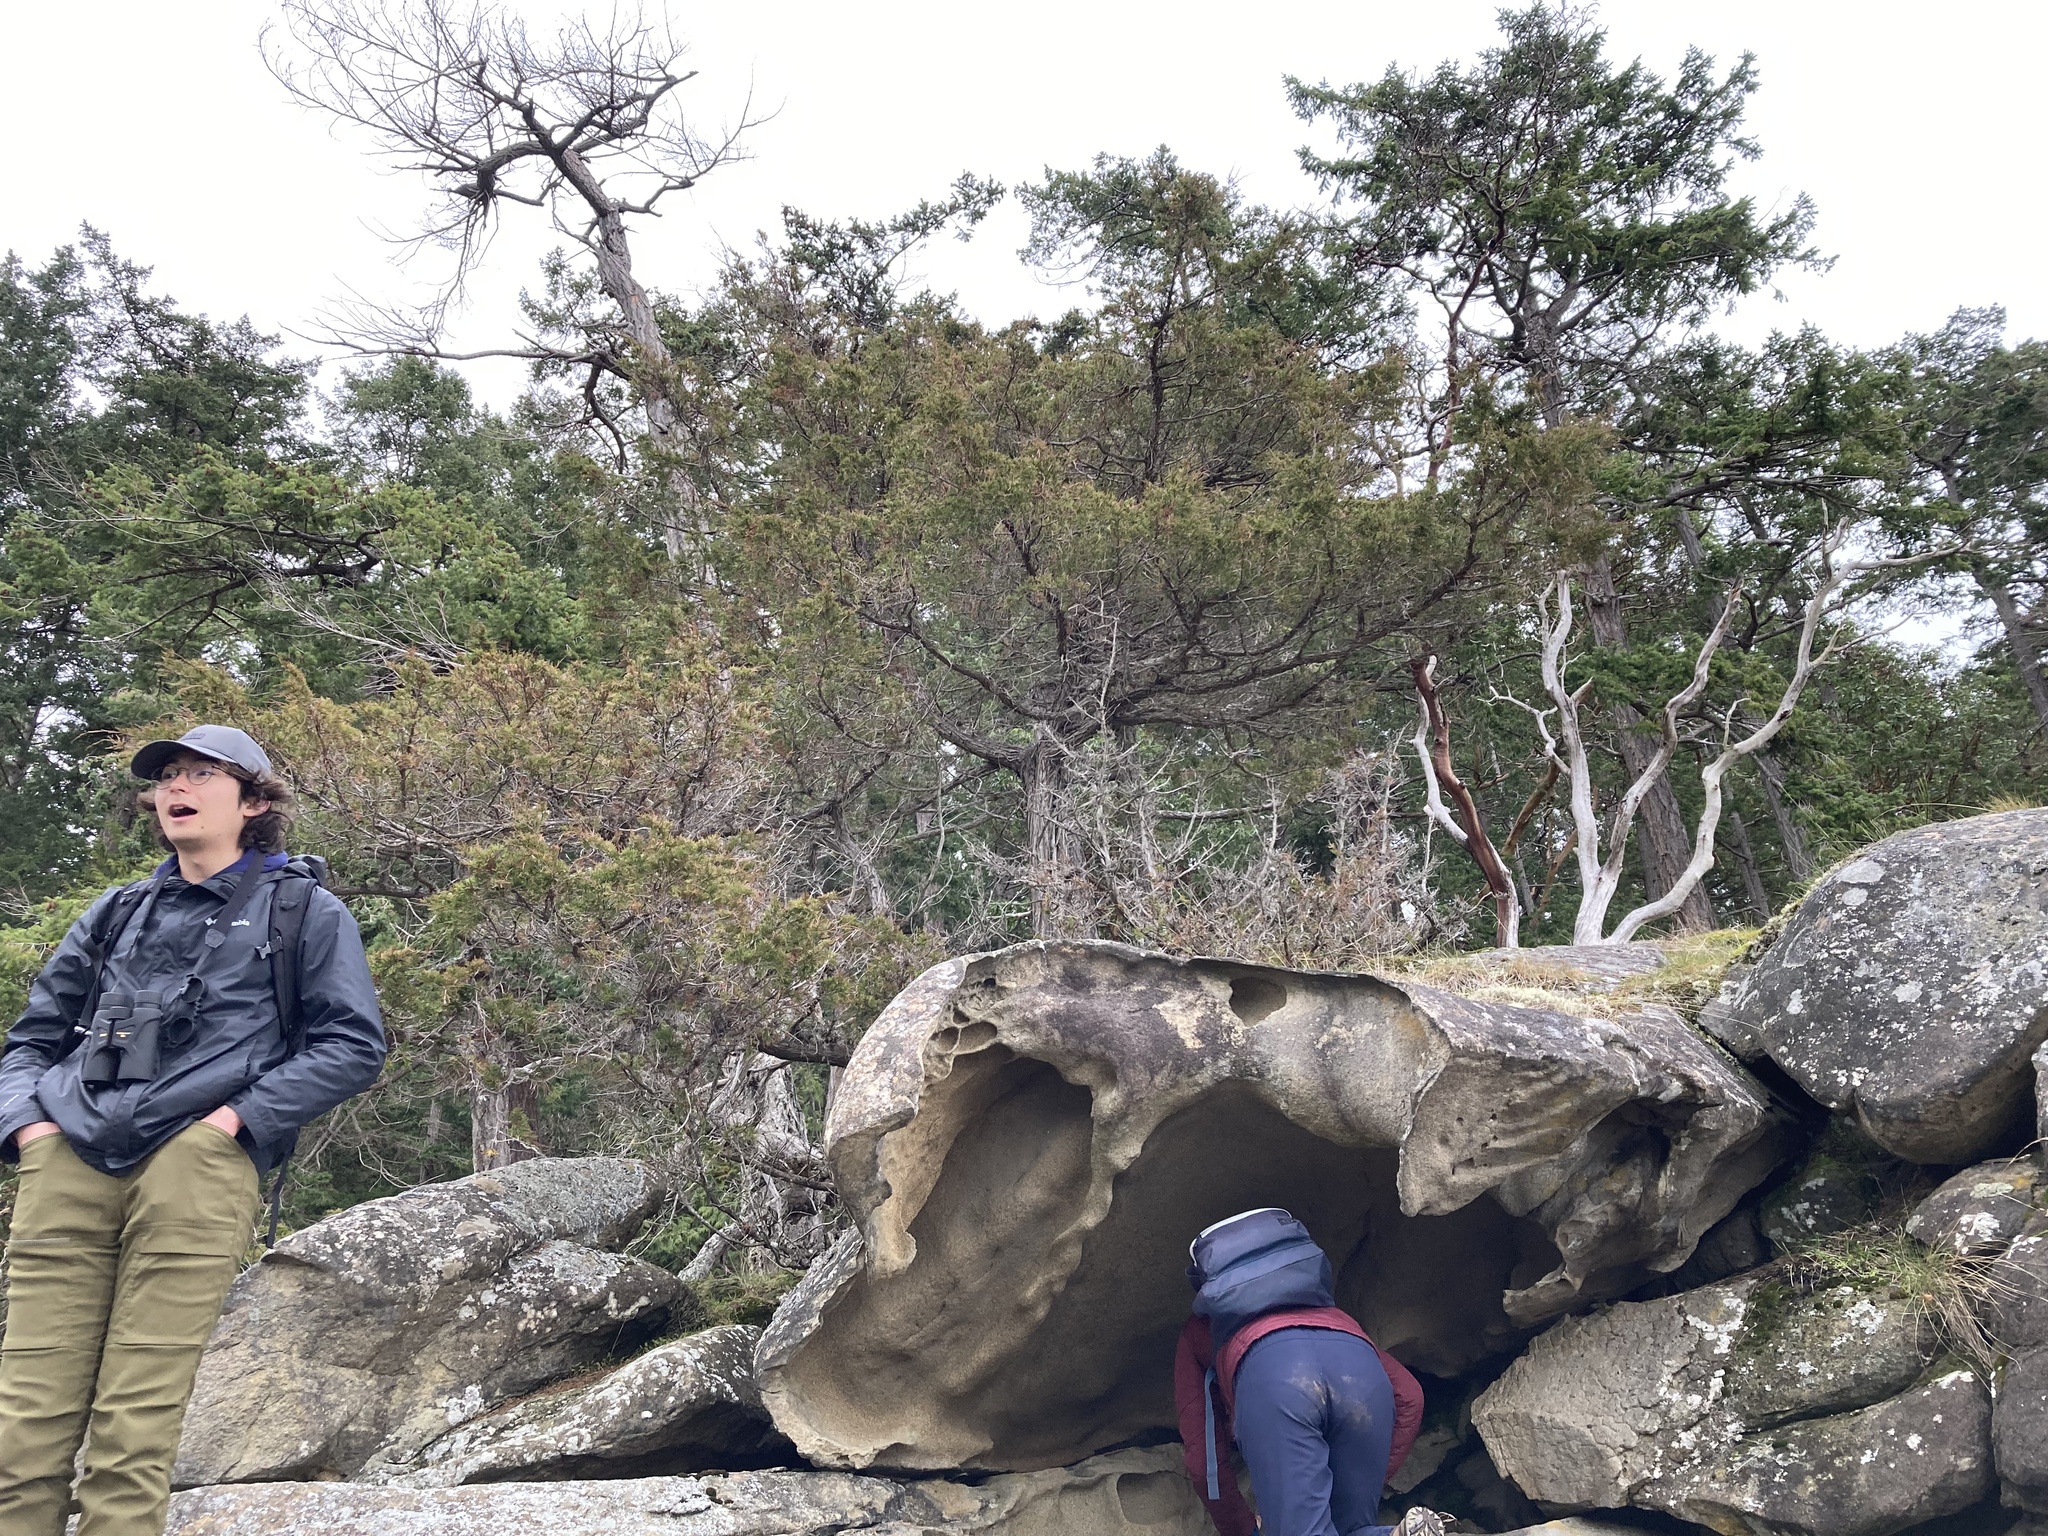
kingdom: Plantae
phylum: Tracheophyta
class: Pinopsida
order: Pinales
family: Cupressaceae
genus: Juniperus
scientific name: Juniperus scopulorum
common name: Rocky mountain juniper
